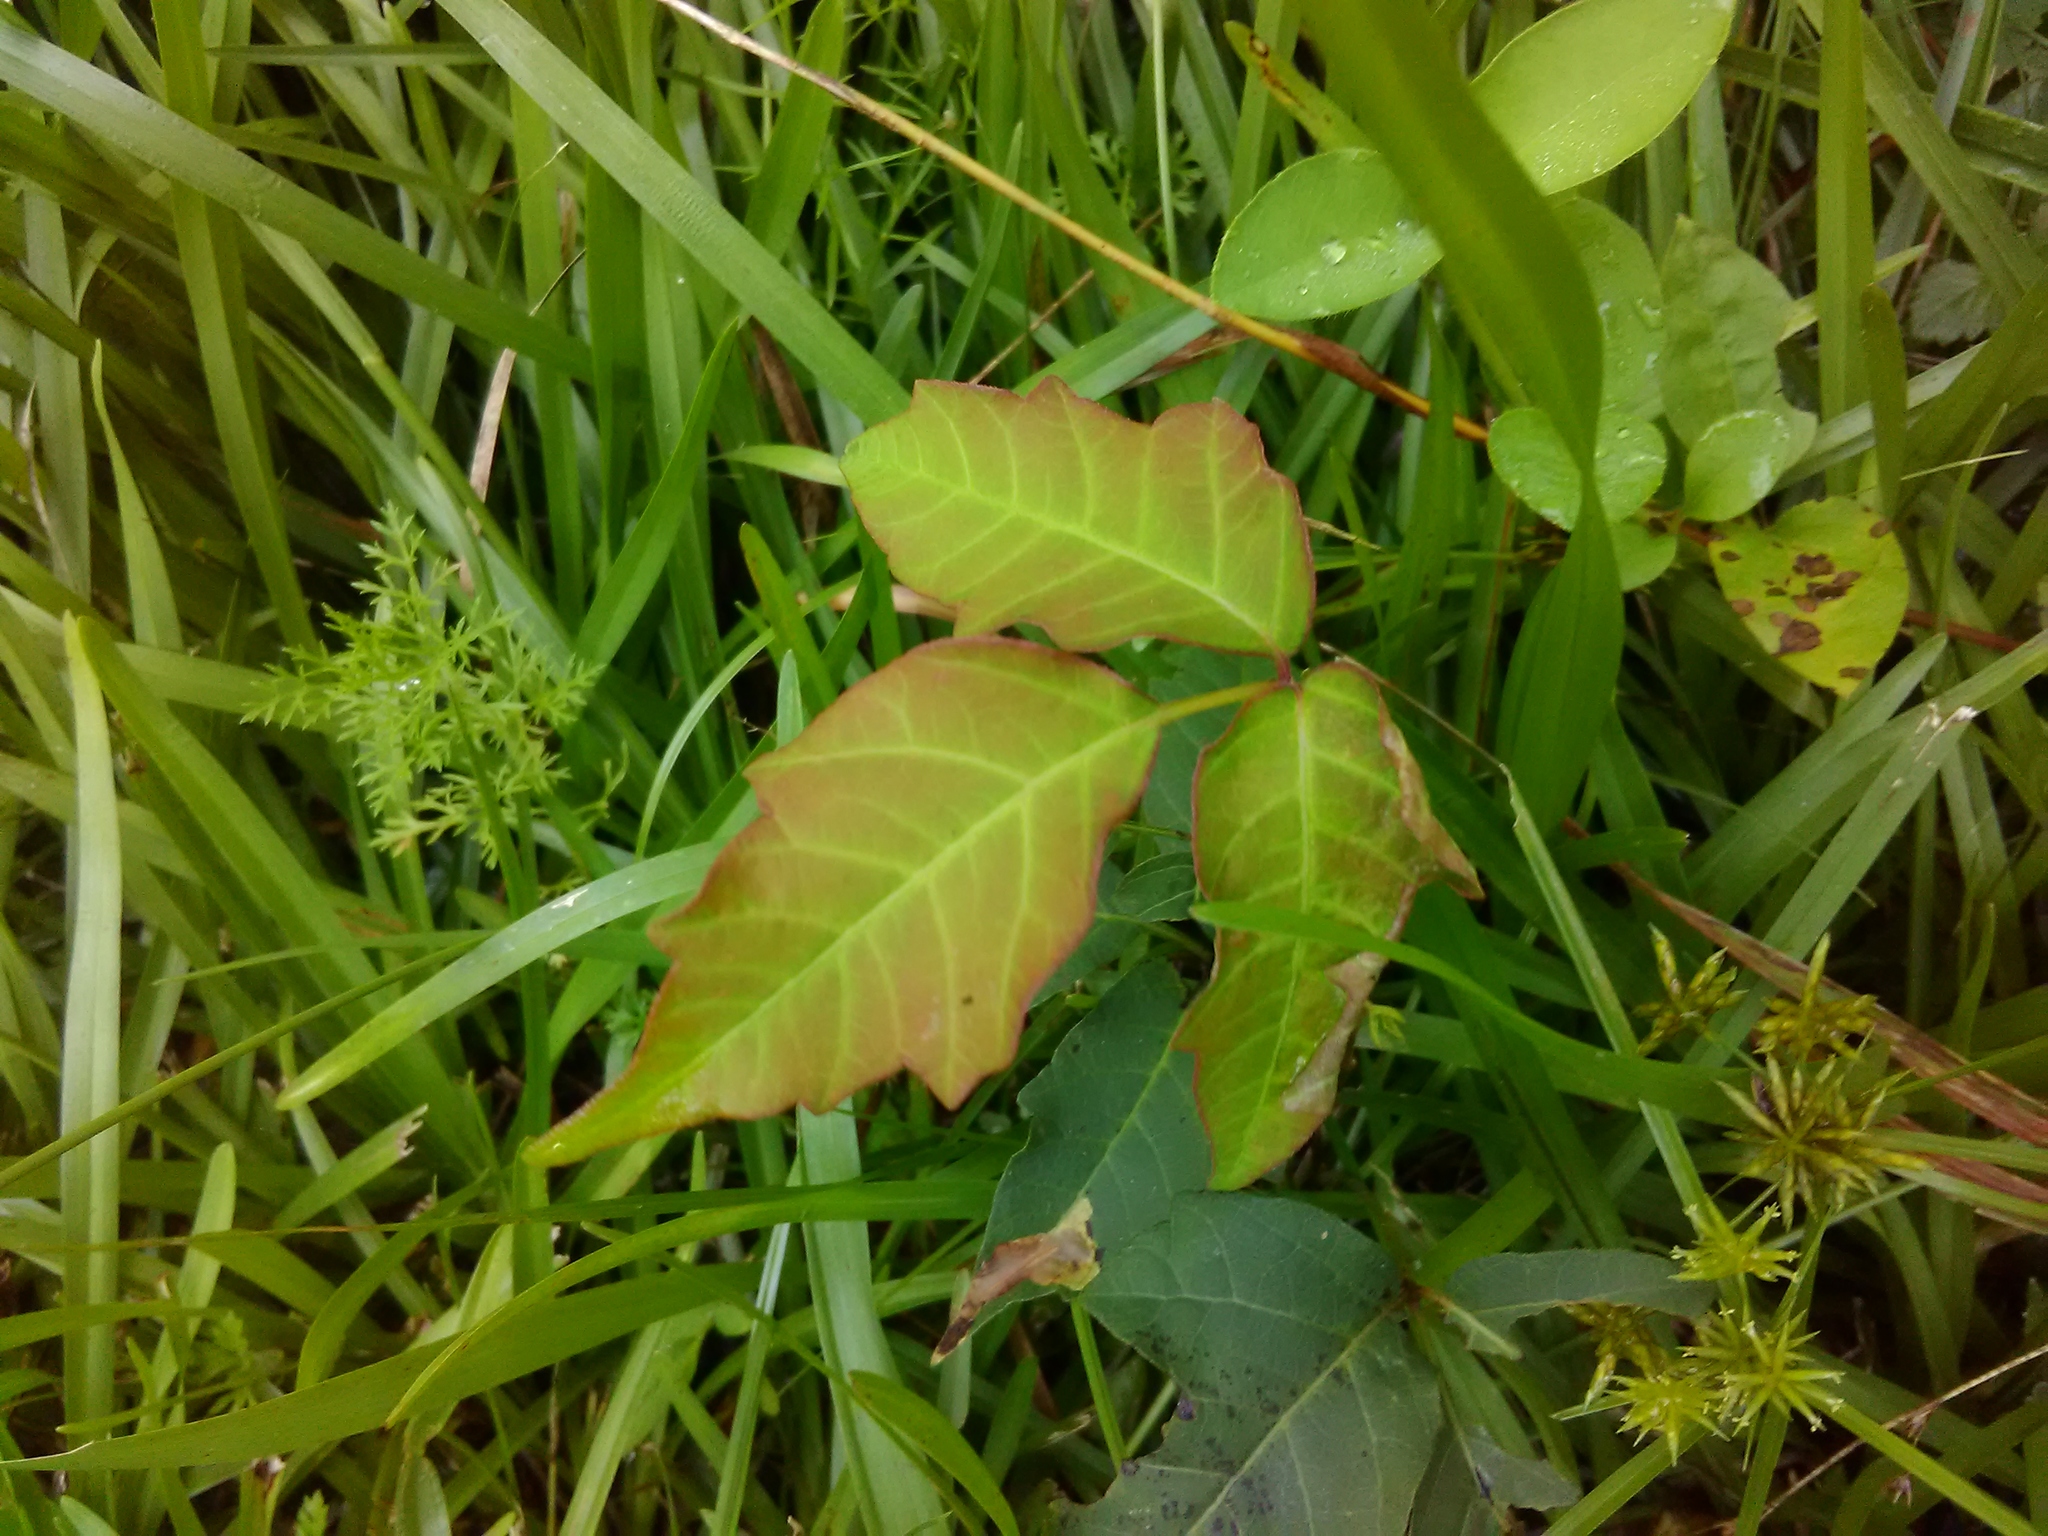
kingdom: Plantae
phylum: Tracheophyta
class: Magnoliopsida
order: Sapindales
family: Anacardiaceae
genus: Toxicodendron
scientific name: Toxicodendron radicans
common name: Poison ivy
